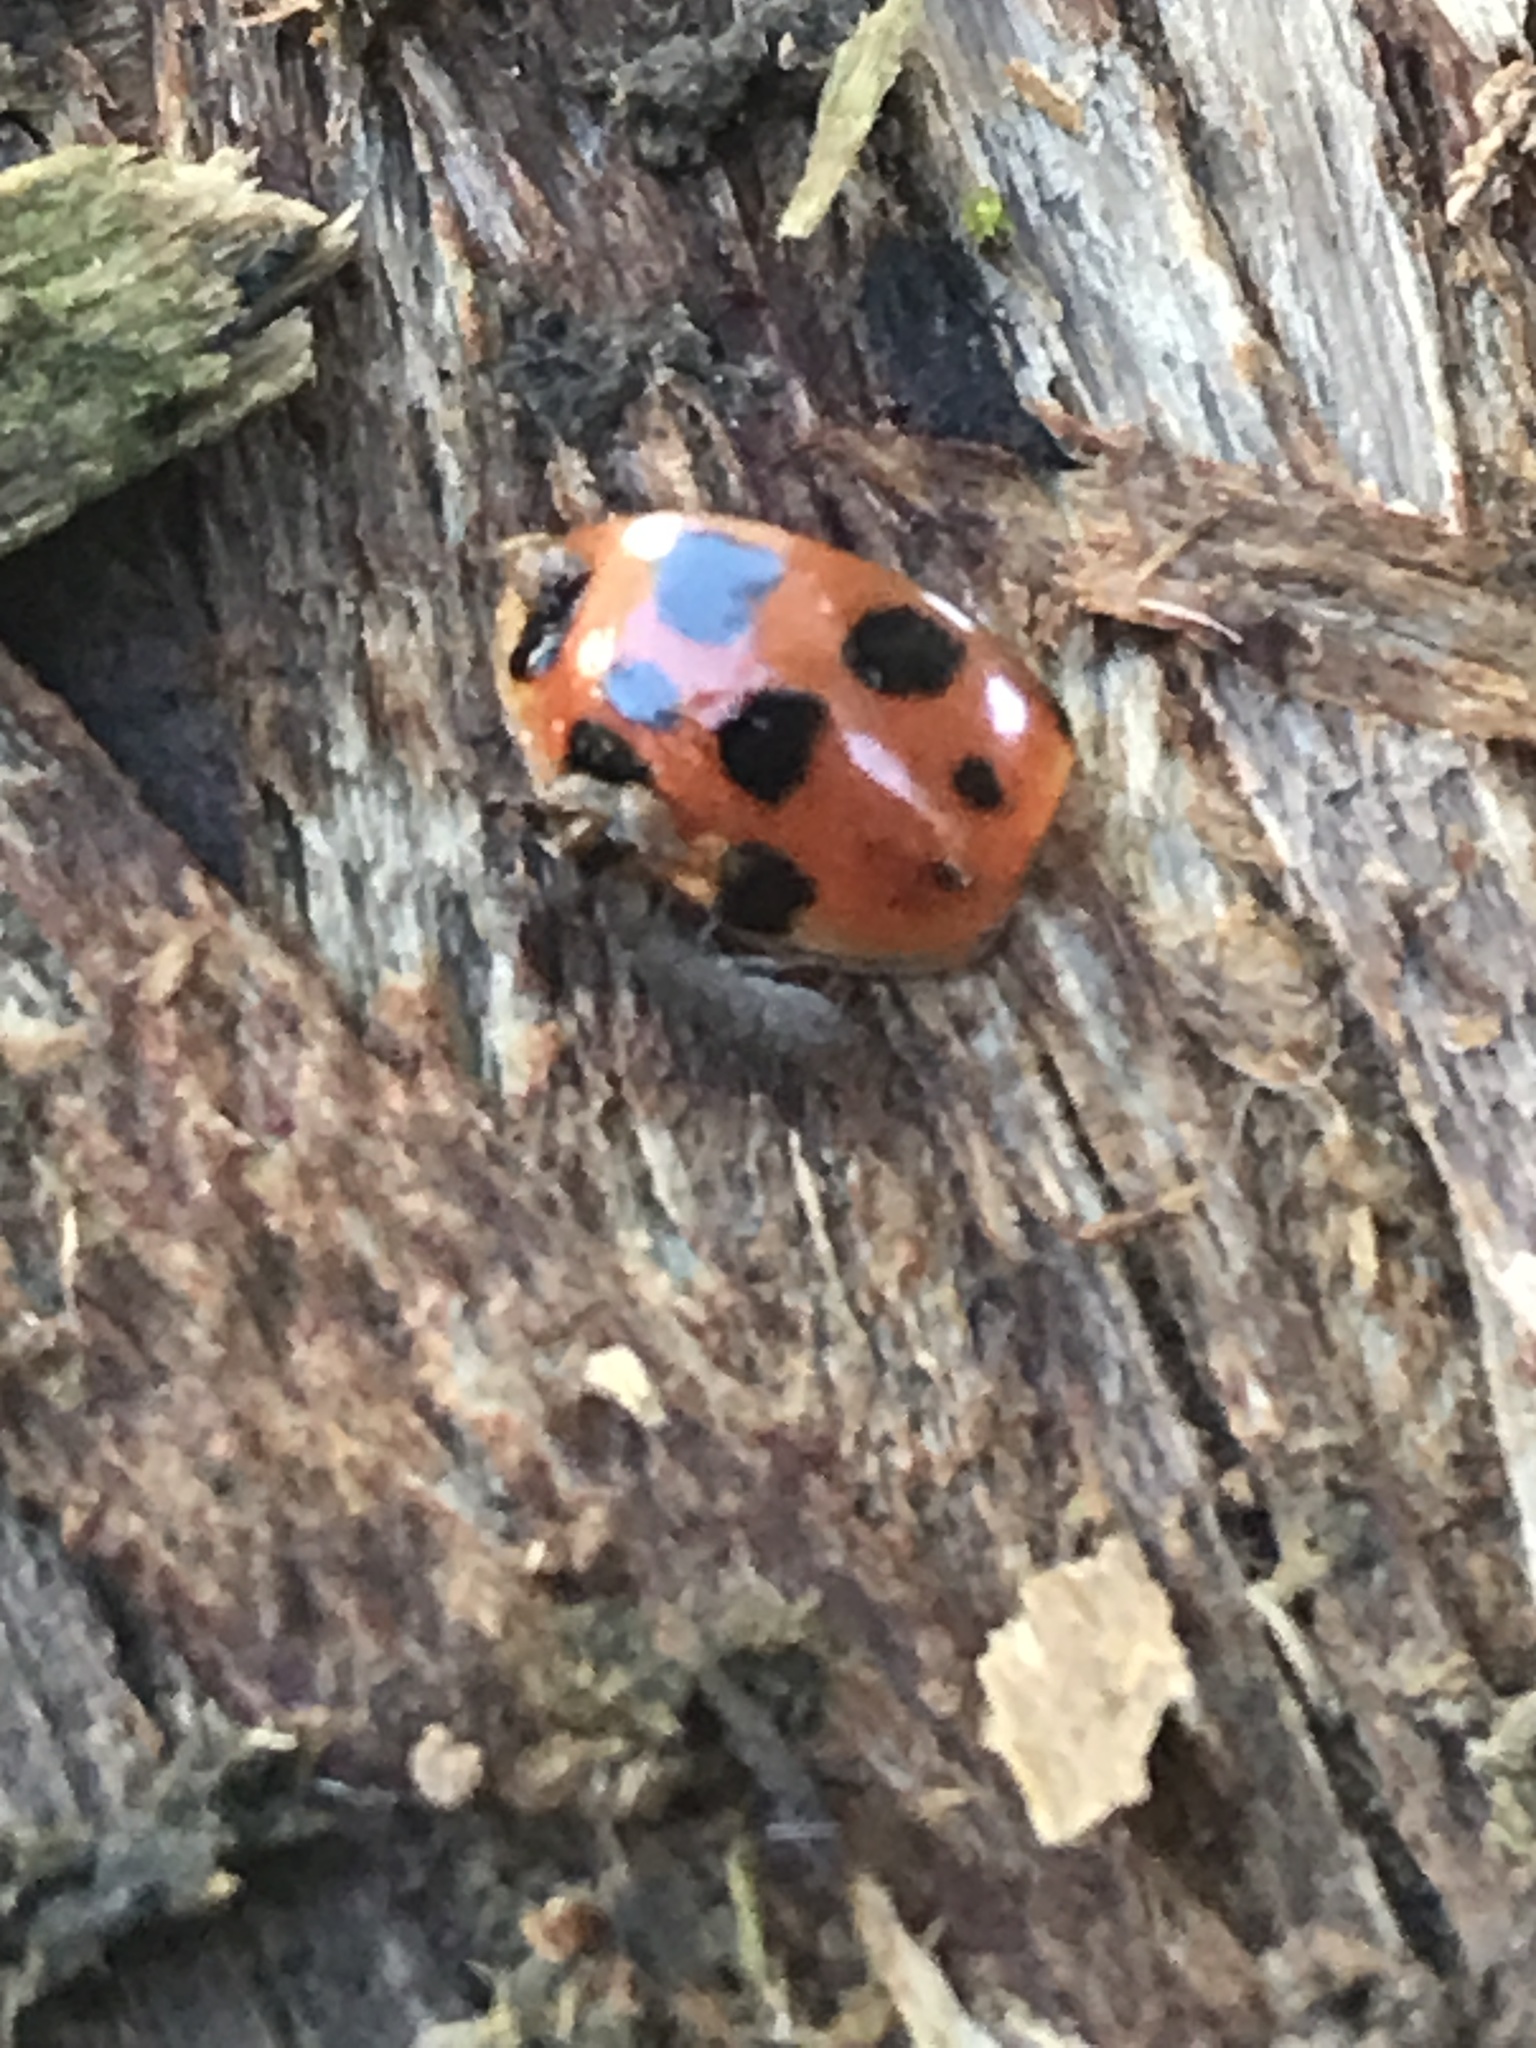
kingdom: Animalia
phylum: Arthropoda
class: Insecta
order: Coleoptera
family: Coccinellidae
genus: Harmonia
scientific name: Harmonia axyridis
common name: Harlequin ladybird
